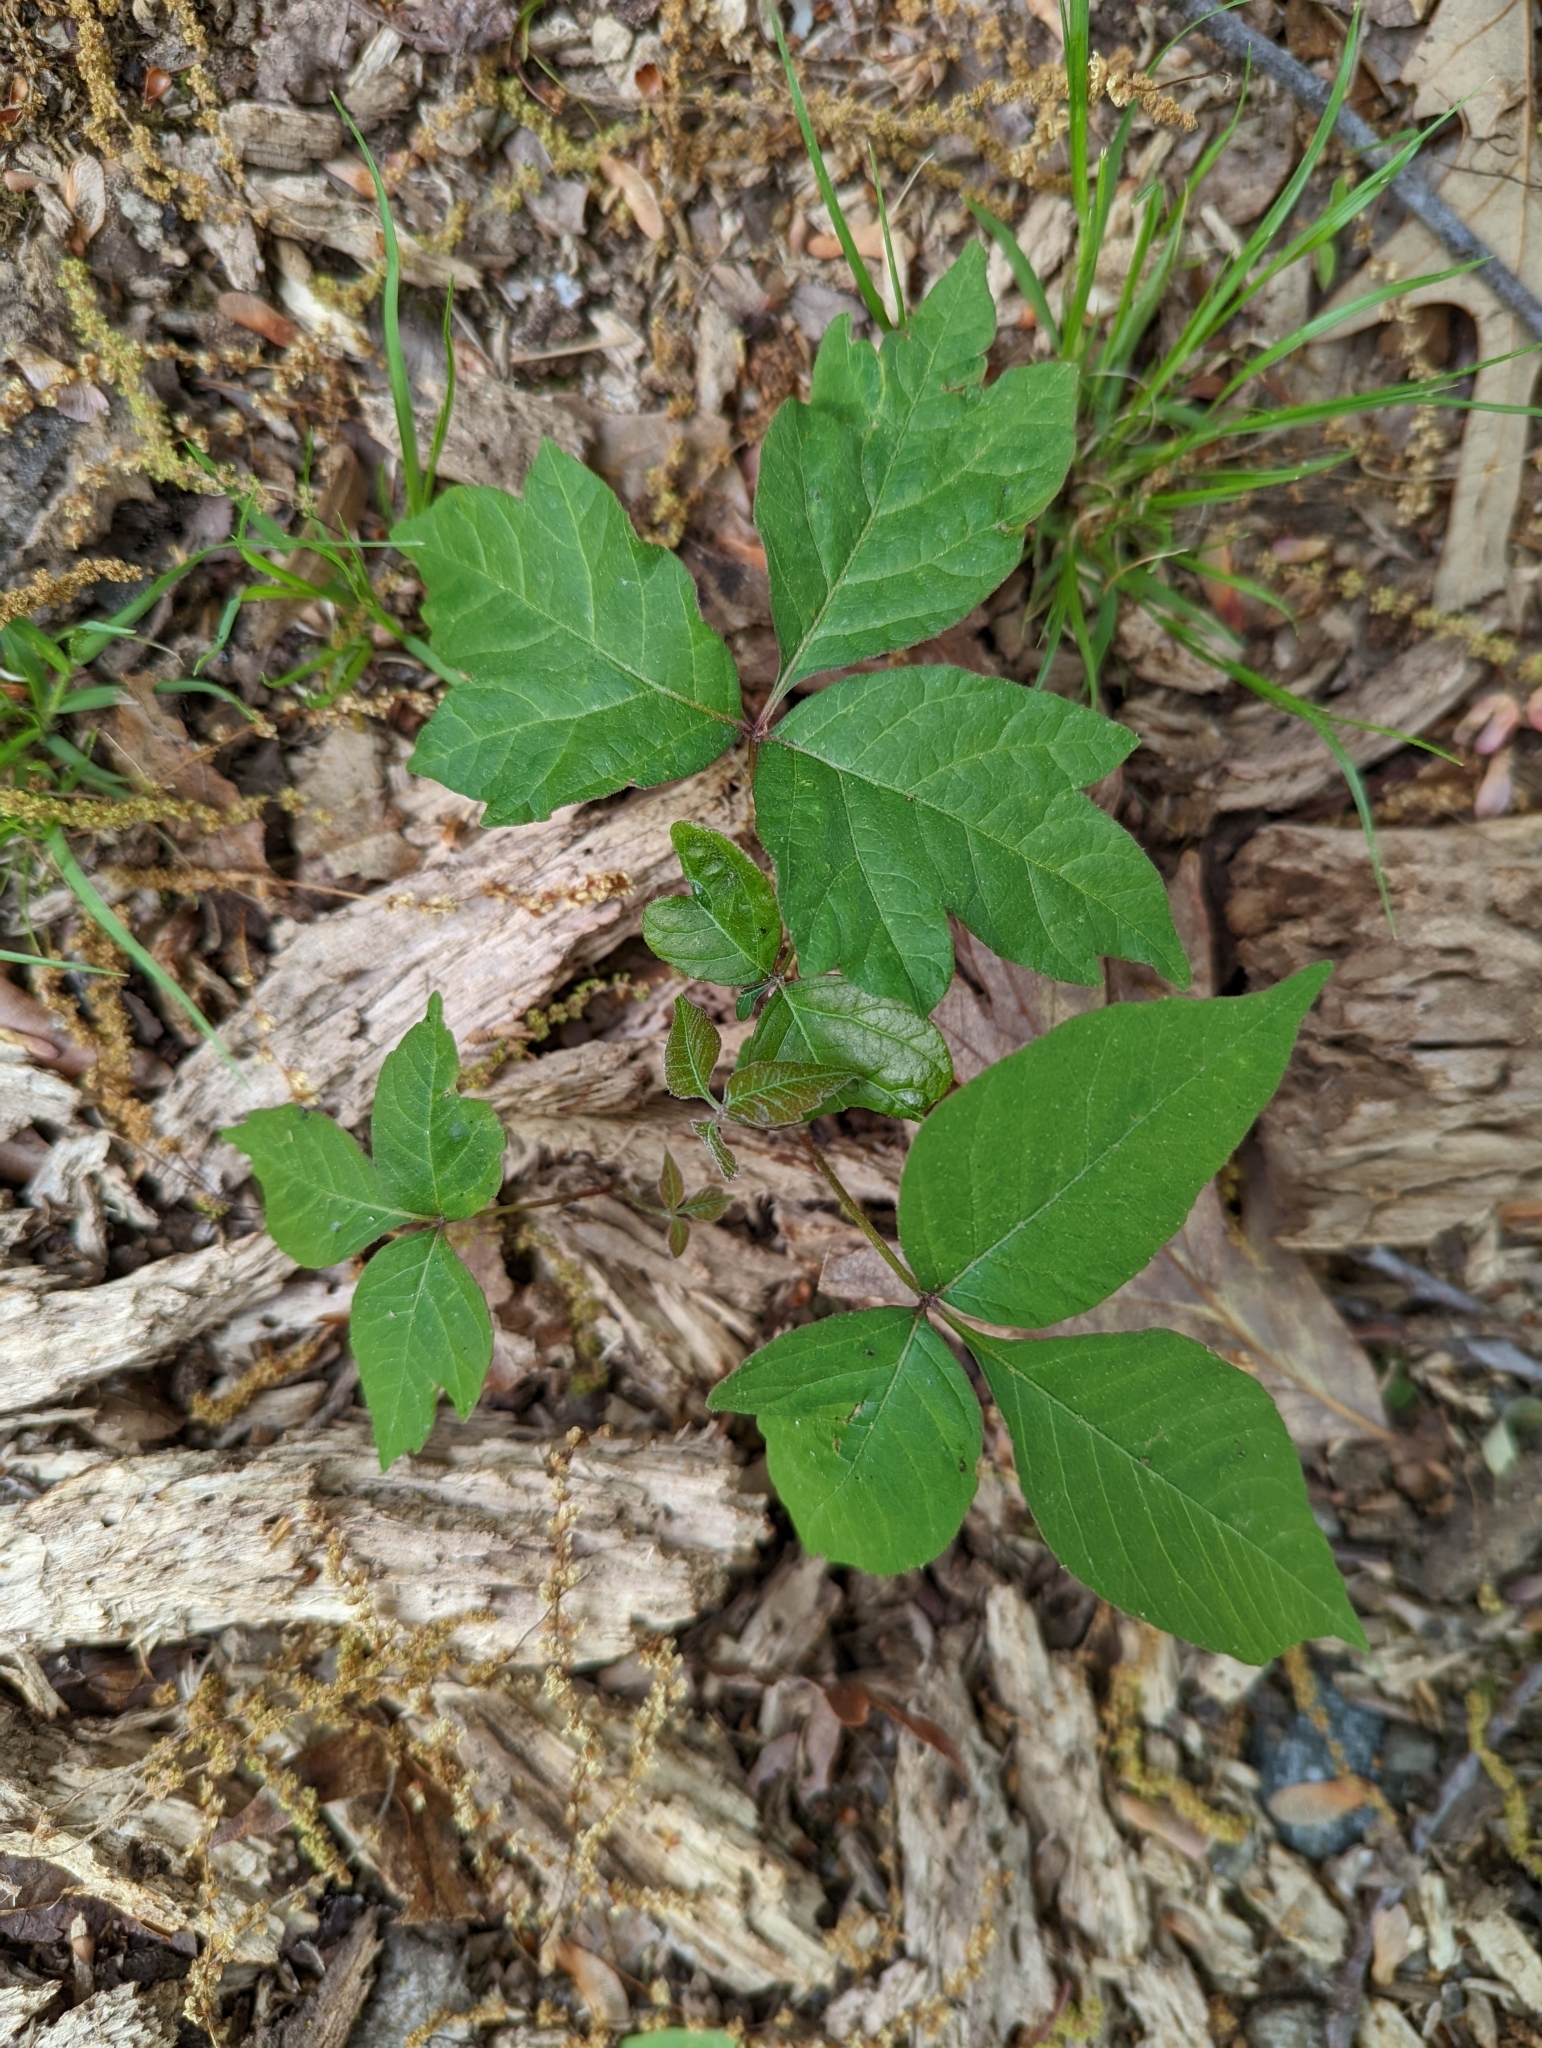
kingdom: Plantae
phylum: Tracheophyta
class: Magnoliopsida
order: Sapindales
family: Anacardiaceae
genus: Toxicodendron
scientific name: Toxicodendron radicans
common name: Poison ivy
